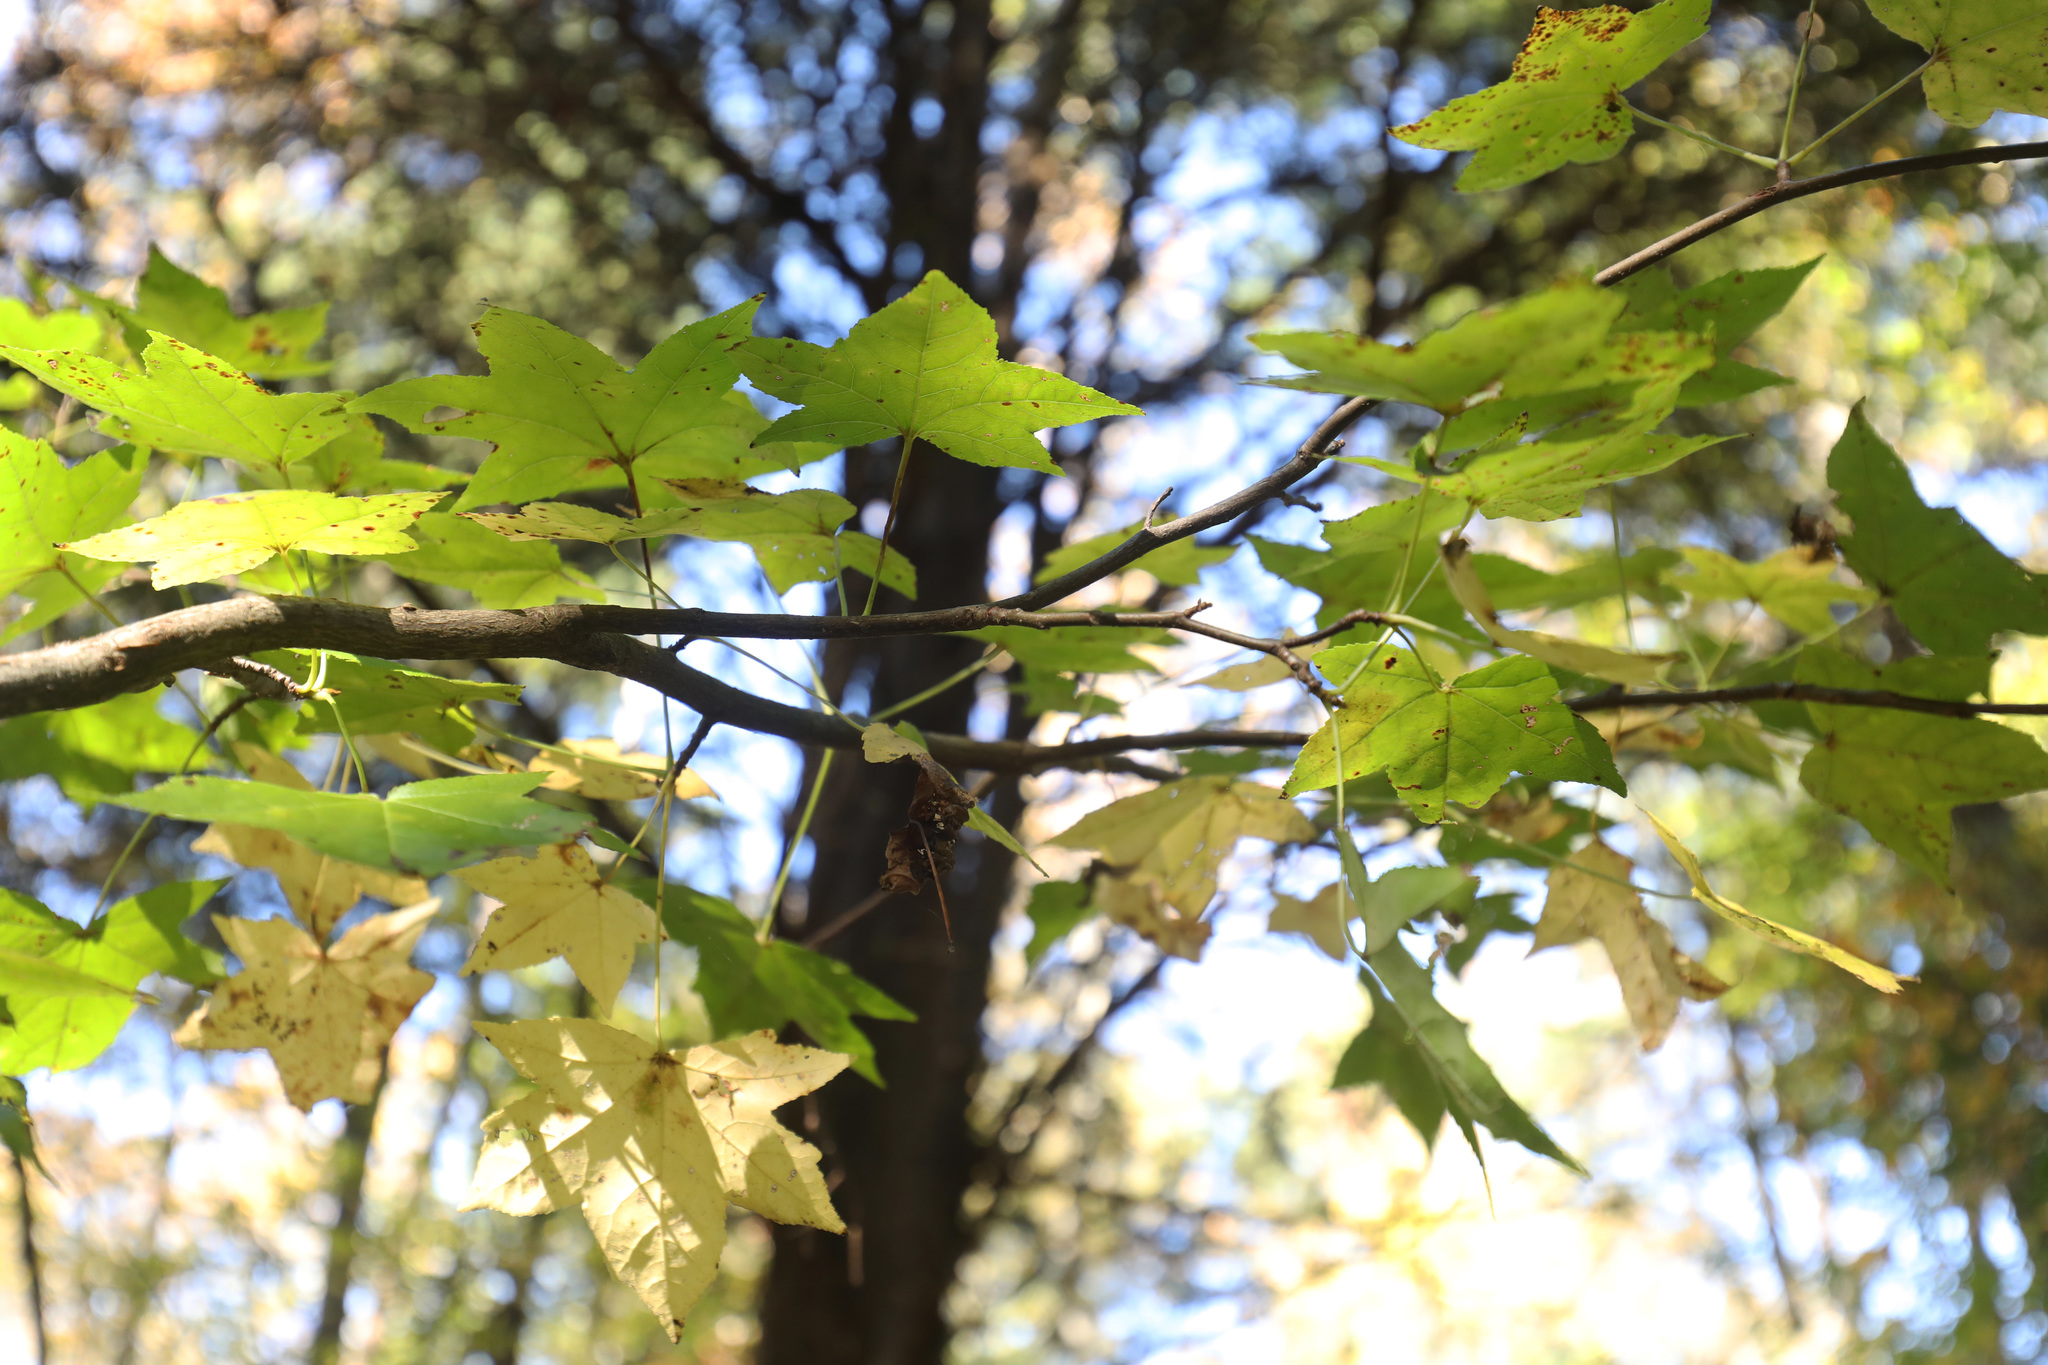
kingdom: Plantae
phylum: Tracheophyta
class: Magnoliopsida
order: Saxifragales
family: Altingiaceae
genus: Liquidambar
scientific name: Liquidambar styraciflua
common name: Sweet gum
